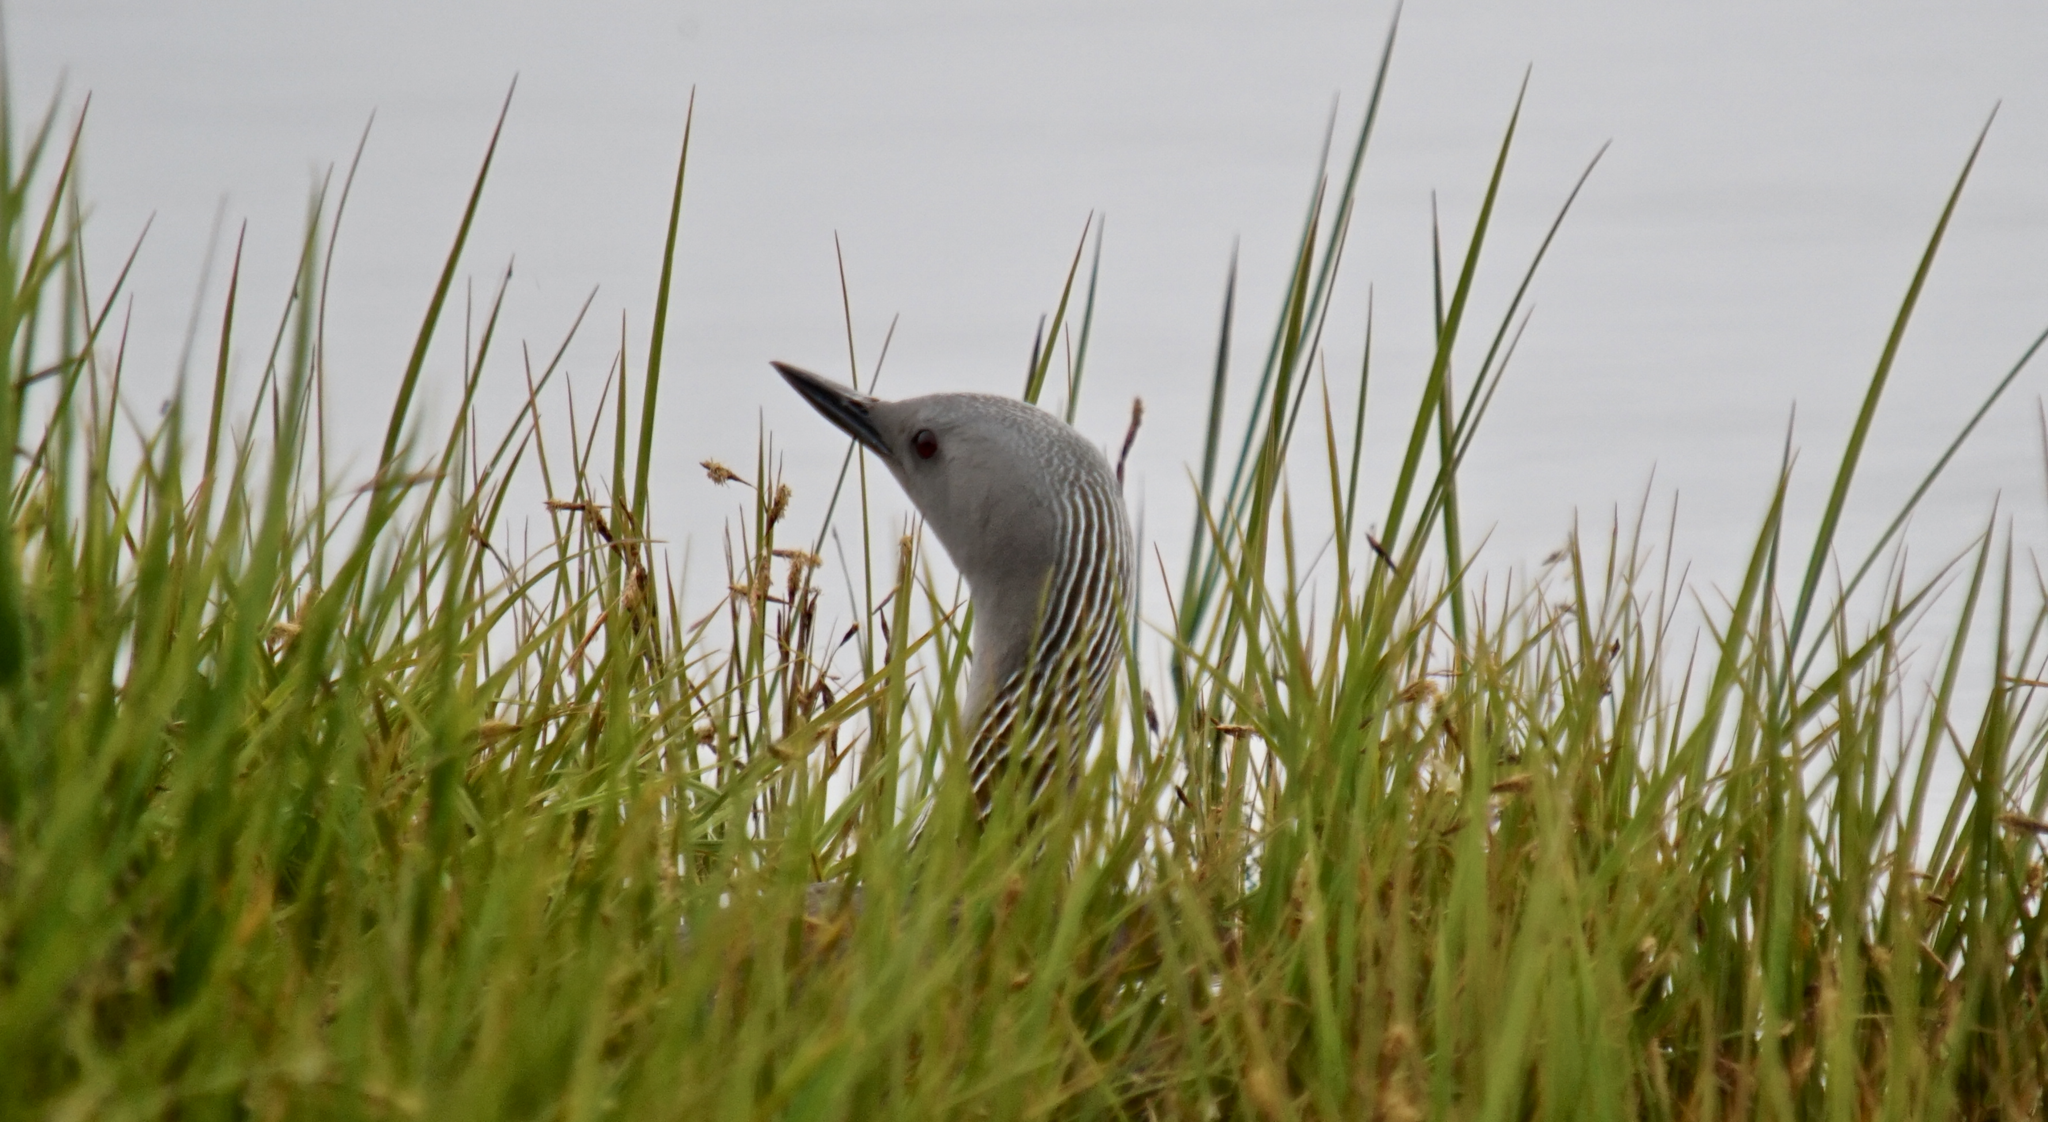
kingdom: Animalia
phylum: Chordata
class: Aves
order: Gaviiformes
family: Gaviidae
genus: Gavia
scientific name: Gavia stellata
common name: Red-throated loon
